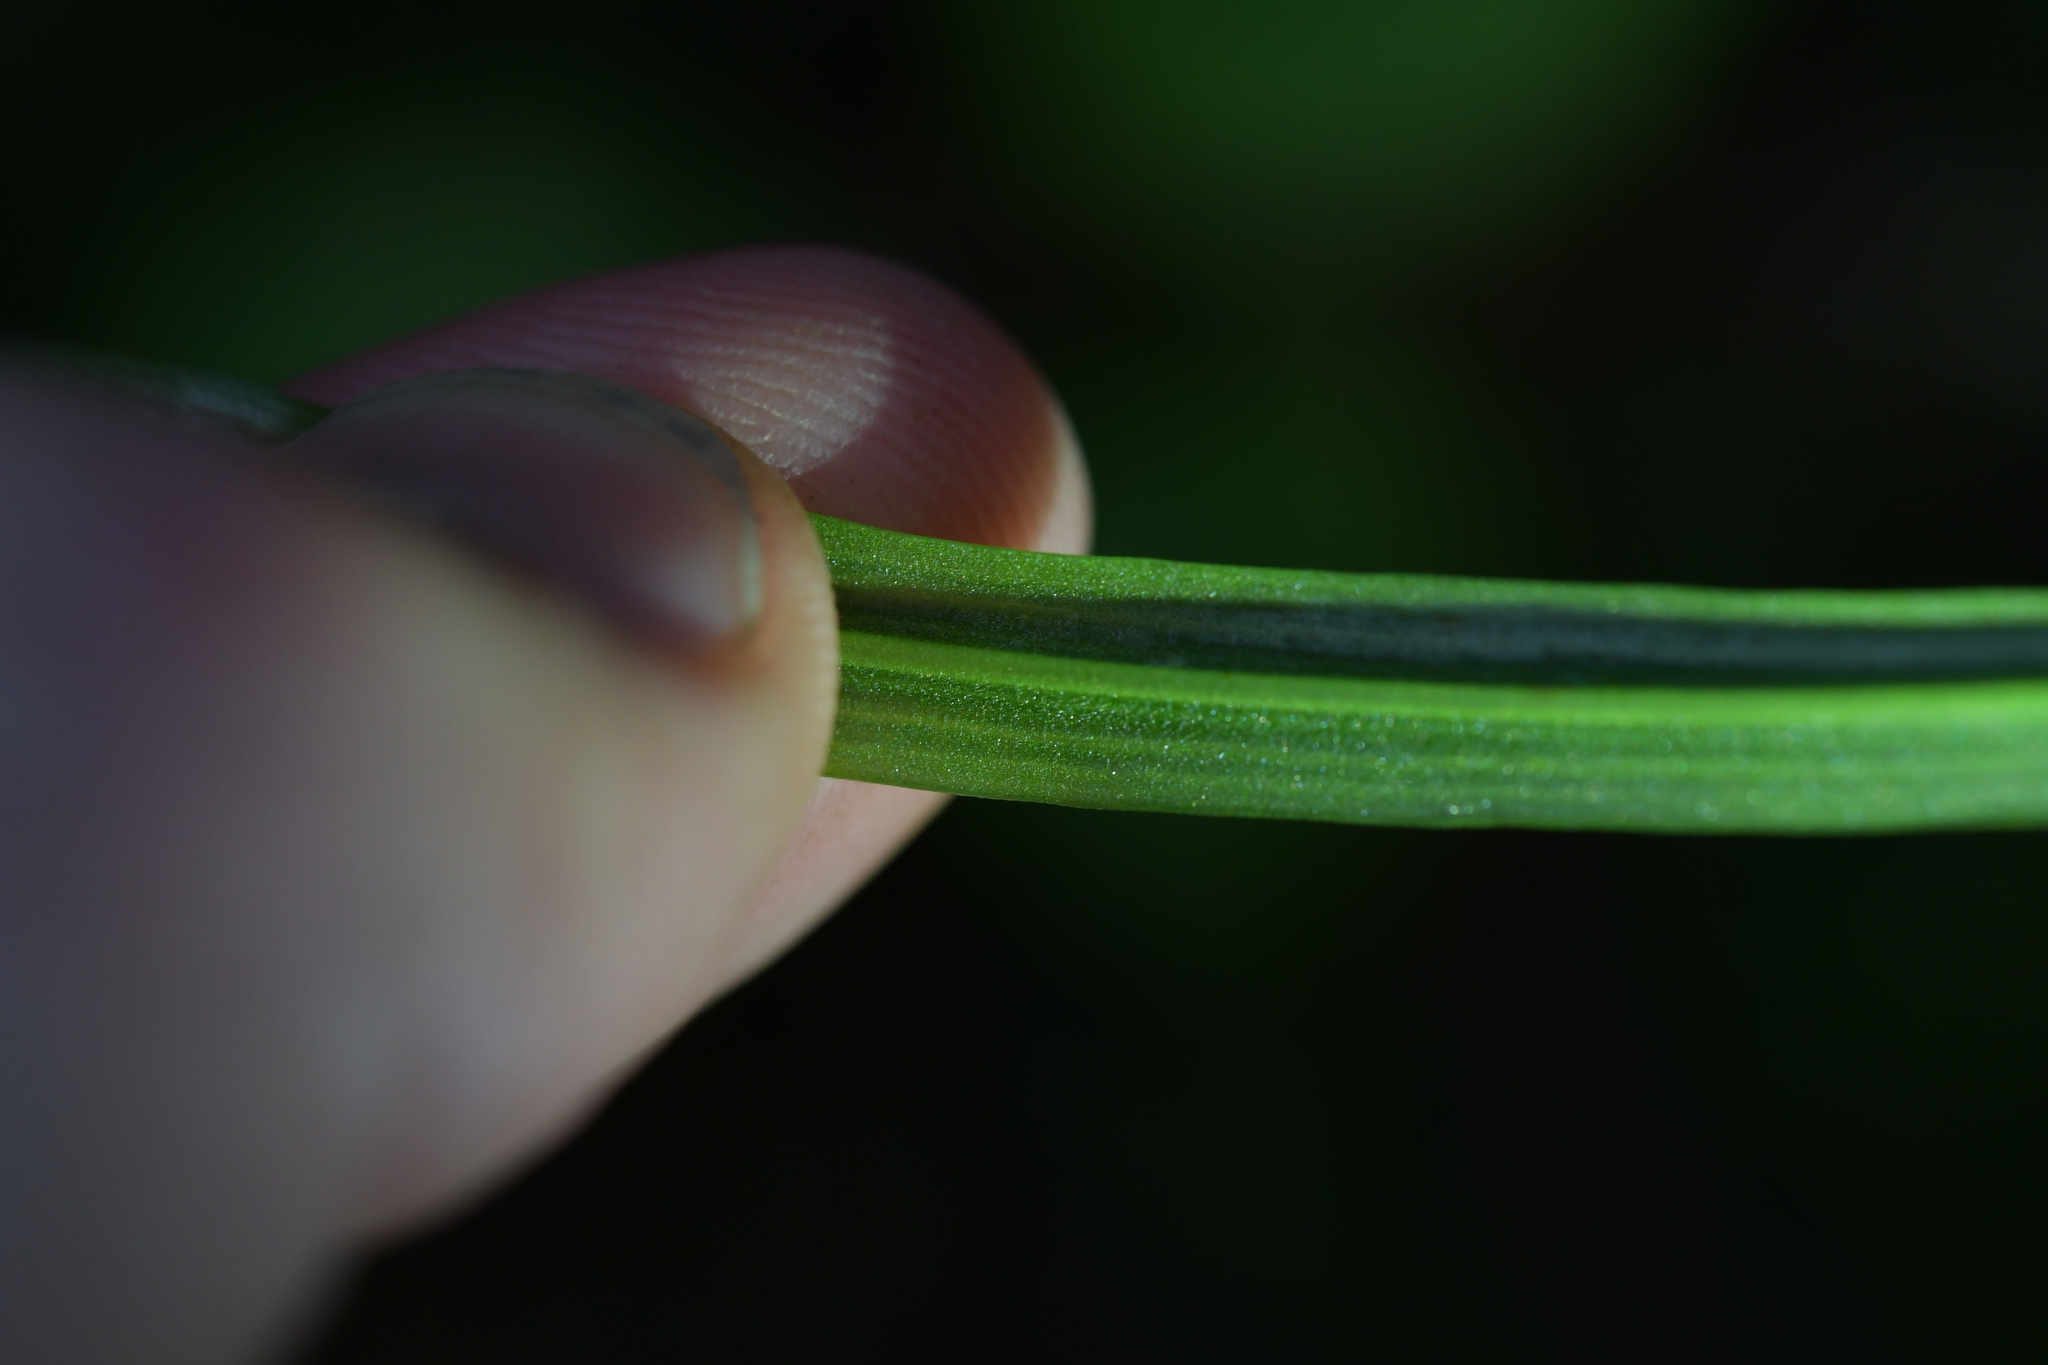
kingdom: Plantae
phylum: Tracheophyta
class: Liliopsida
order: Asparagales
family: Orchidaceae
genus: Pterostylis
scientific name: Pterostylis graminea
